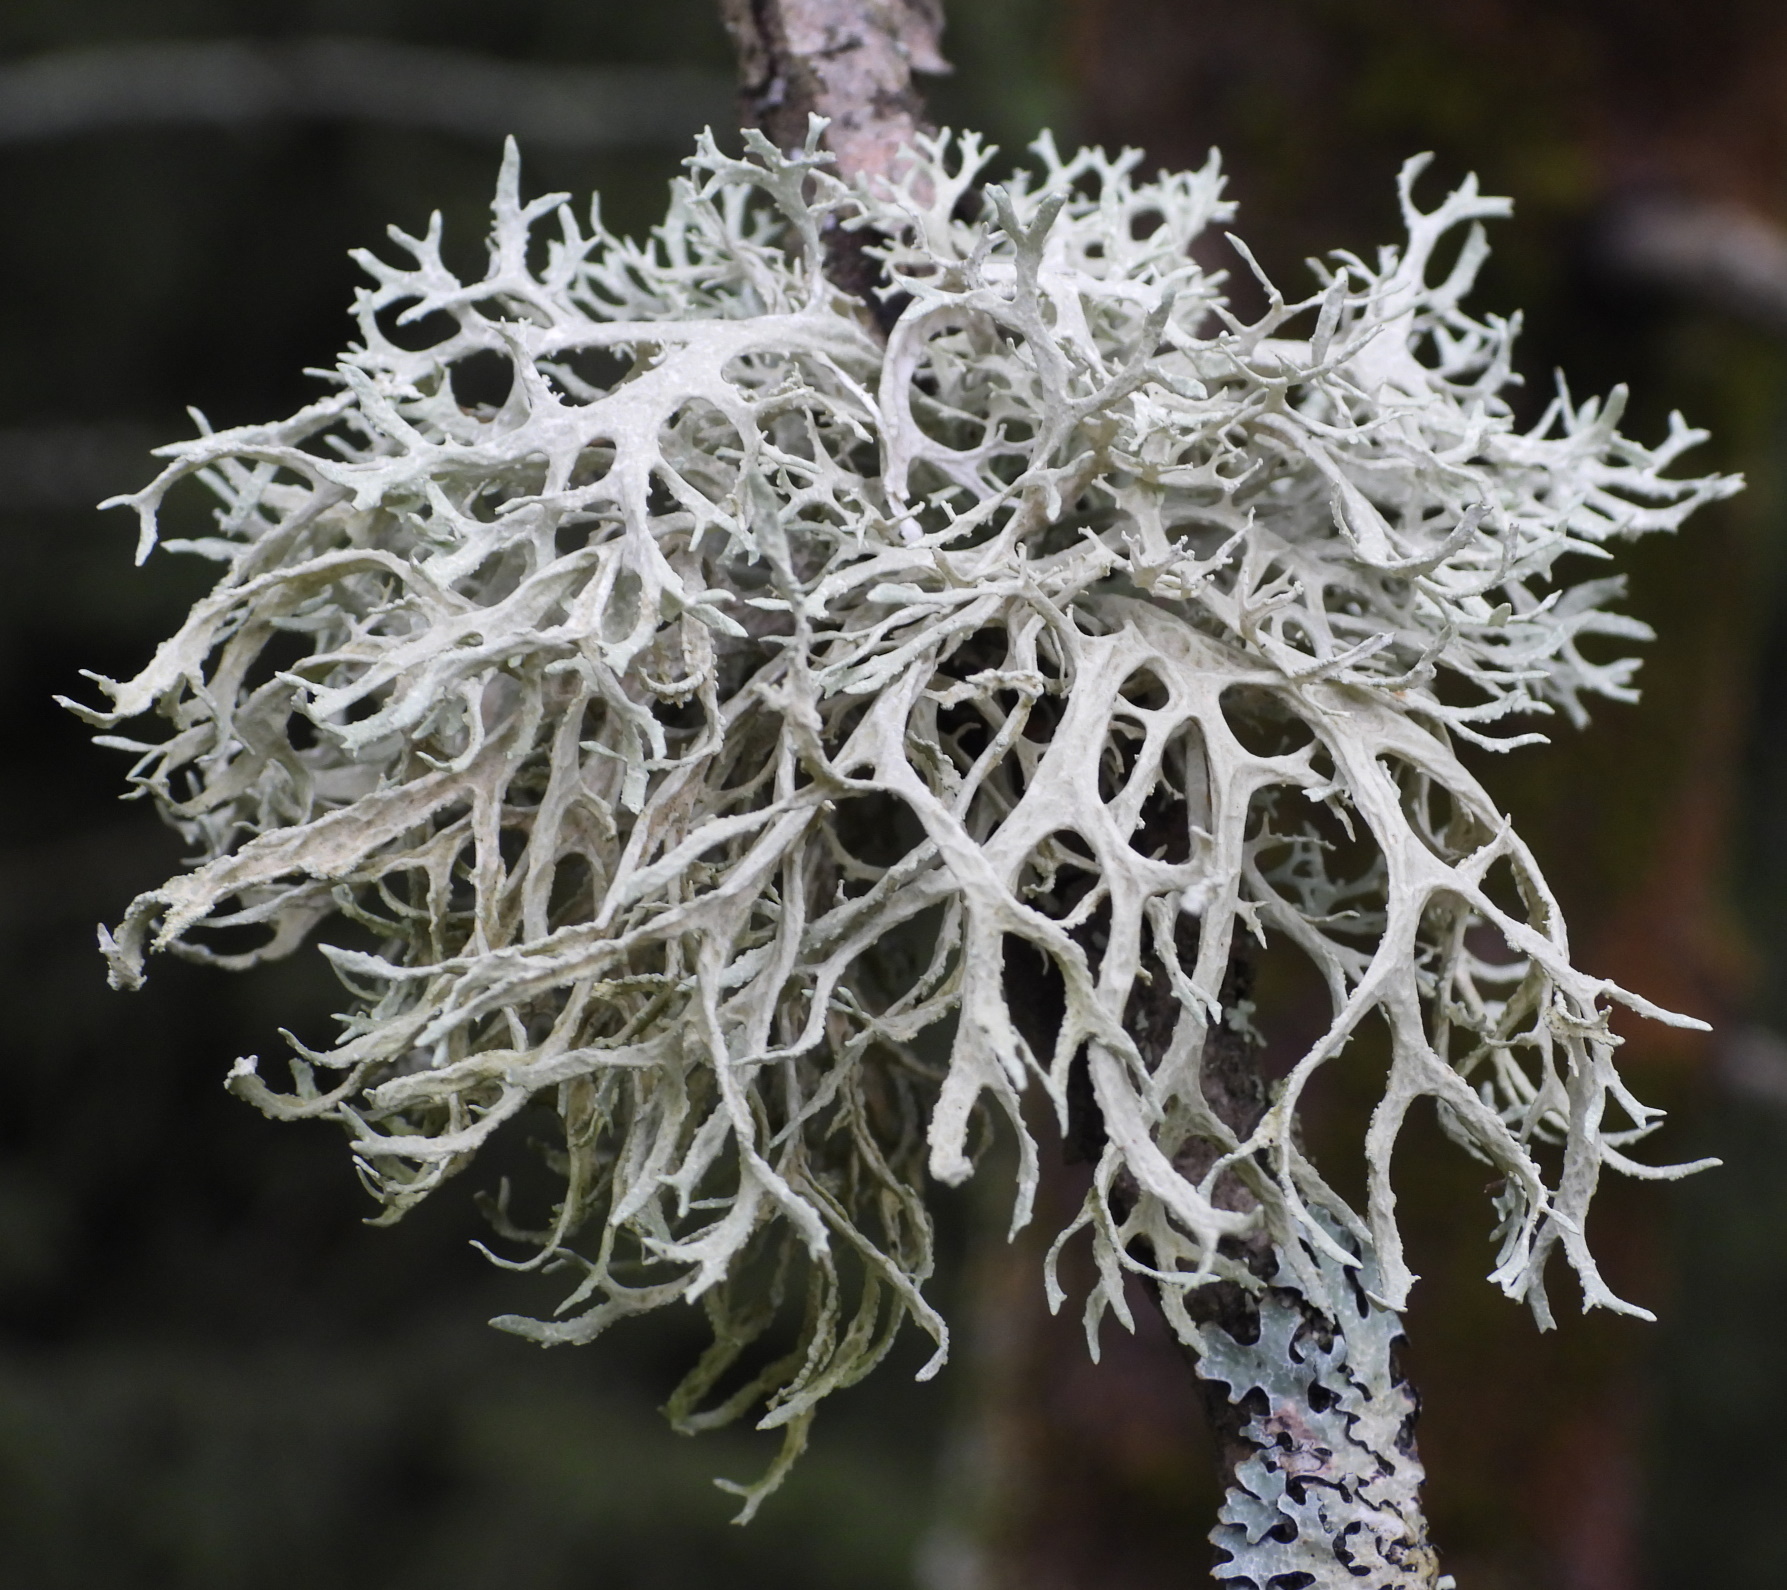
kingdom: Fungi
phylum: Ascomycota
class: Lecanoromycetes
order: Lecanorales
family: Parmeliaceae
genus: Evernia
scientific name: Evernia prunastri
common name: Oak moss
